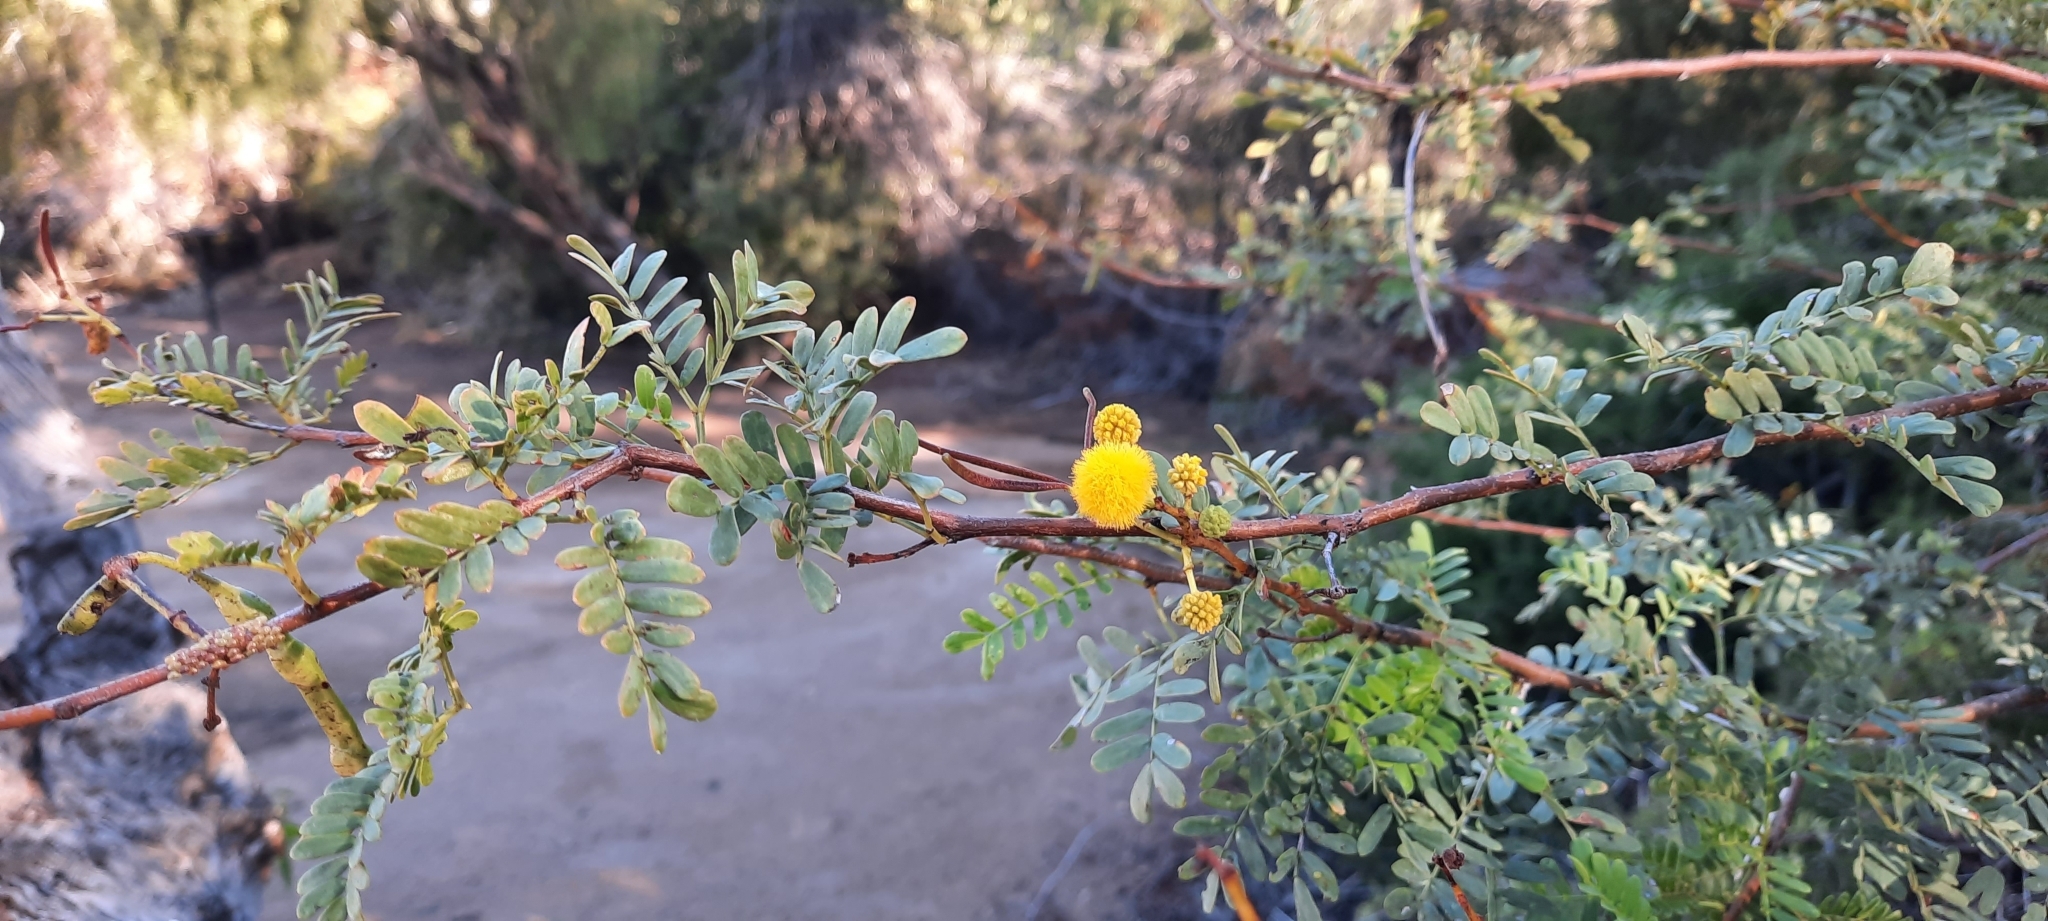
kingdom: Plantae
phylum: Tracheophyta
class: Magnoliopsida
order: Fabales
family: Fabaceae
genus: Vachellia
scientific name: Vachellia karroo
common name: Sweet thorn
